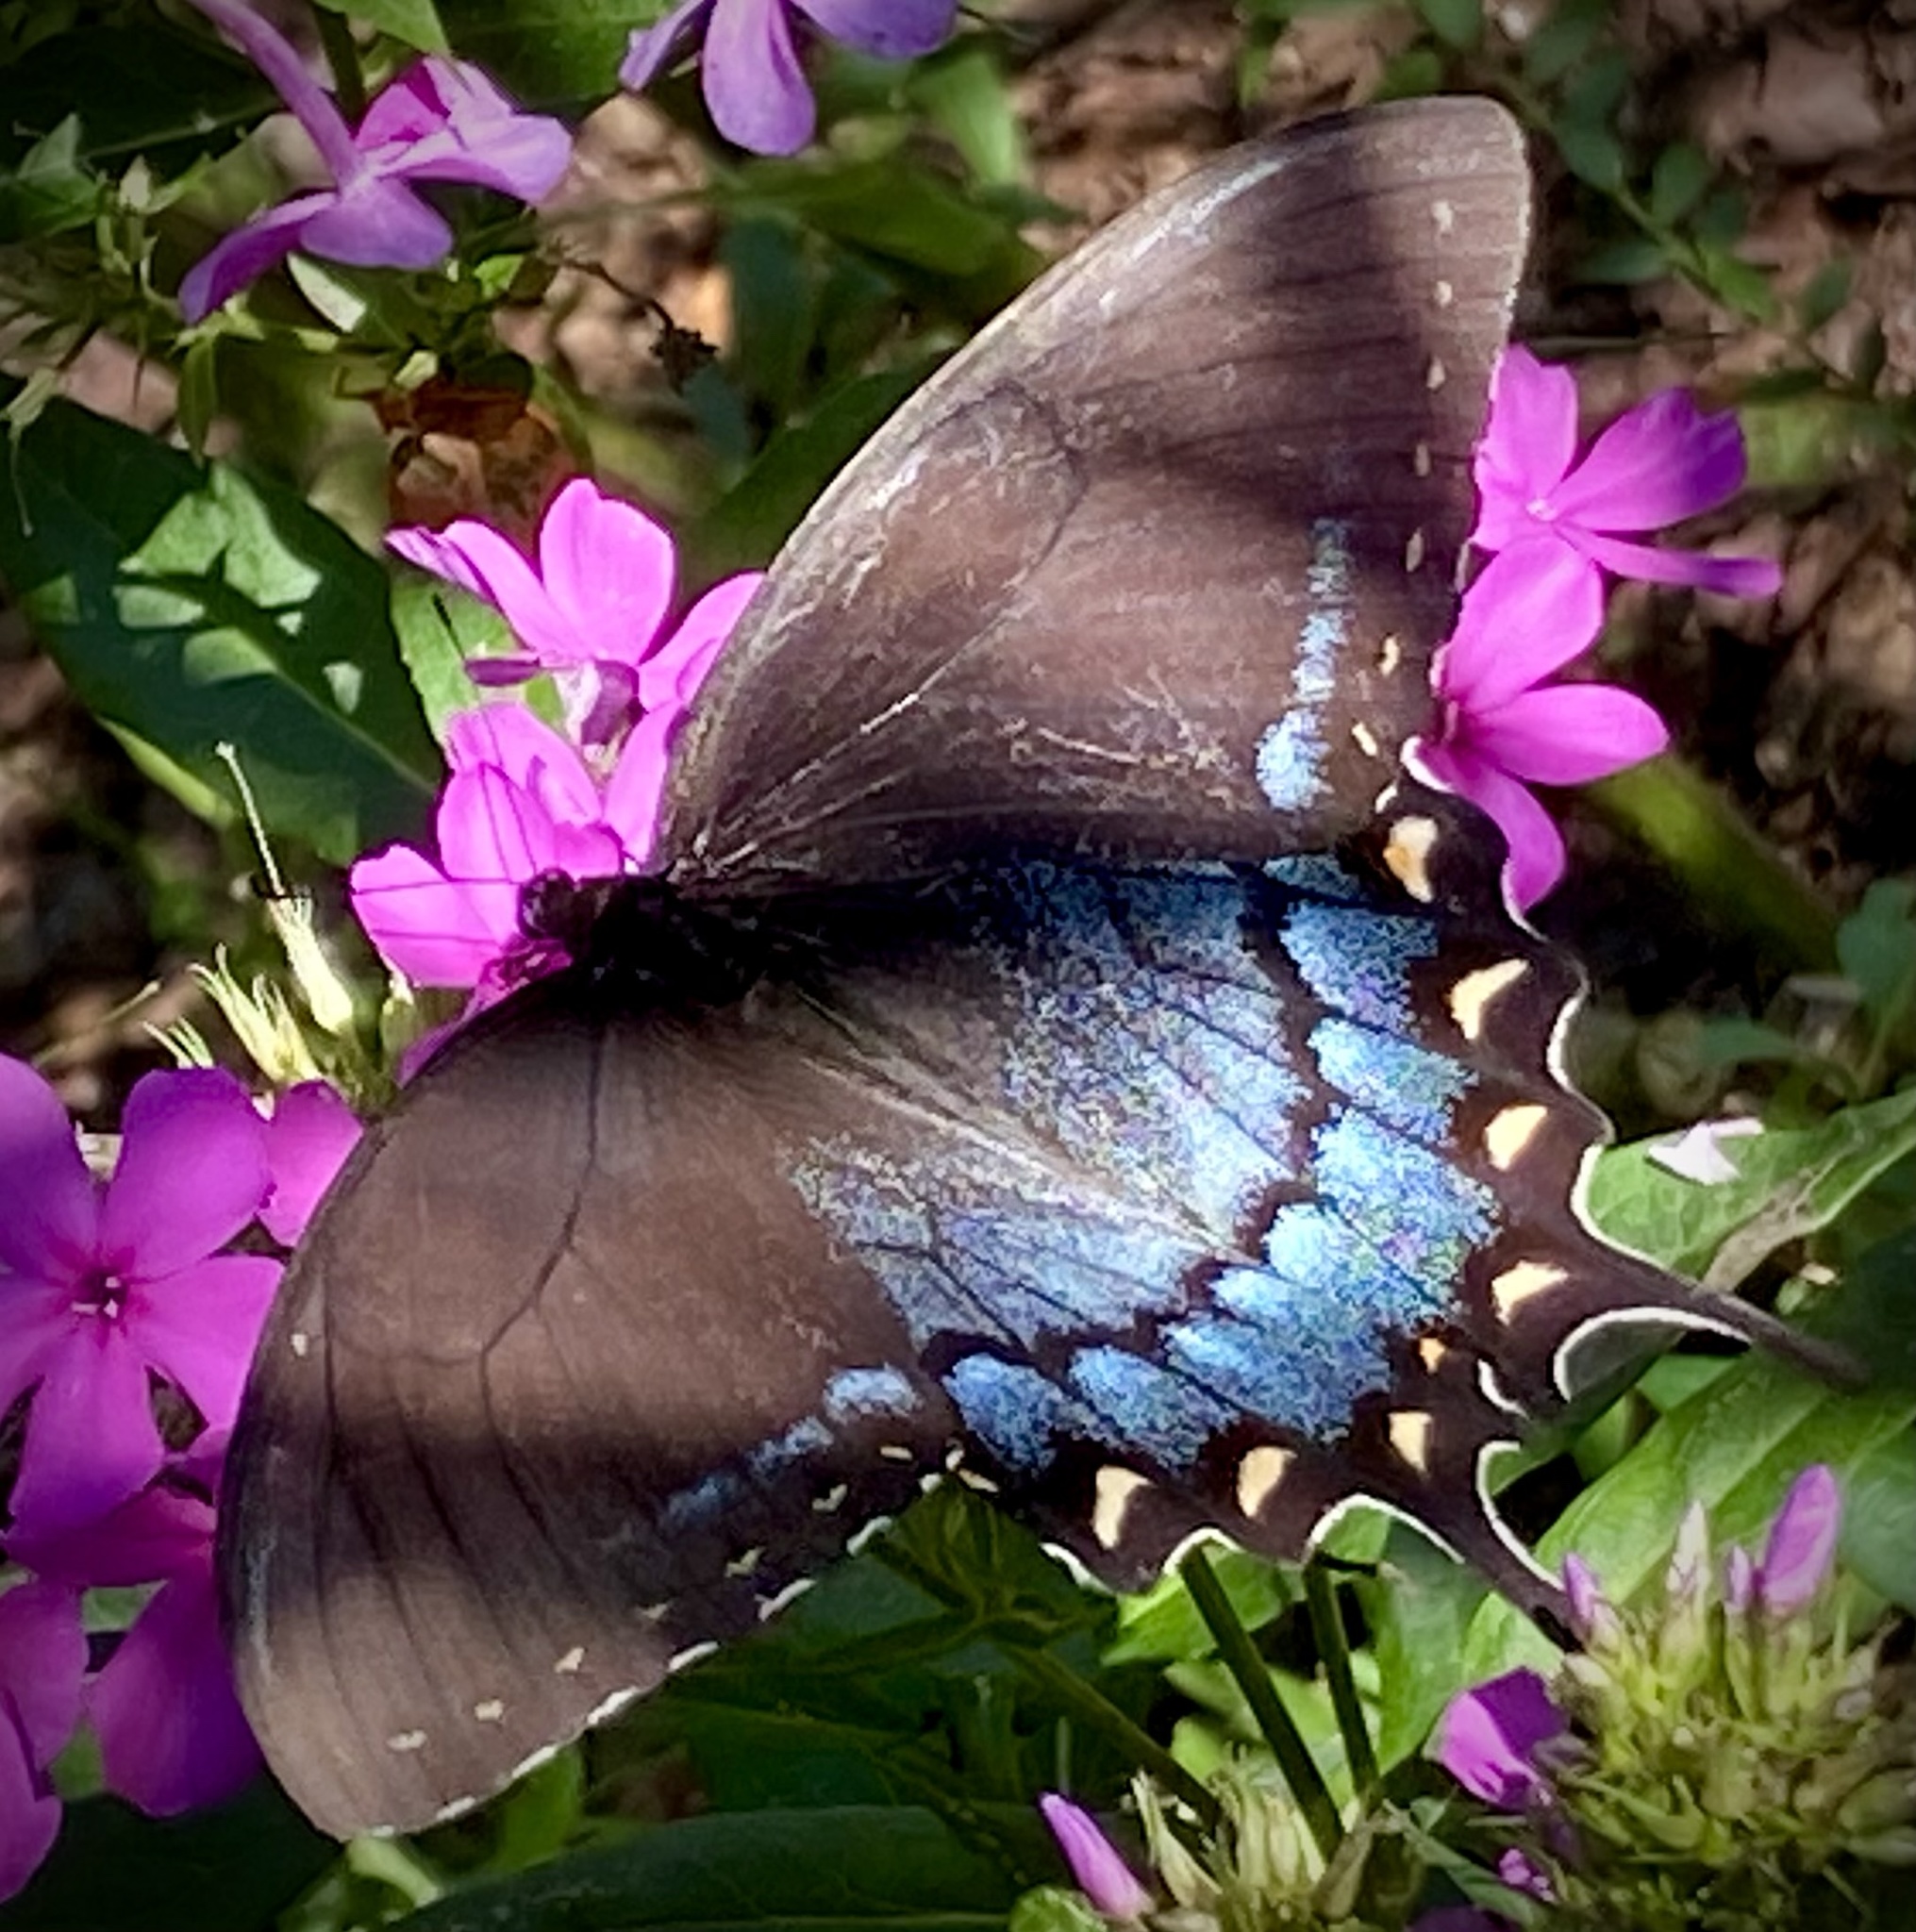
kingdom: Animalia
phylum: Arthropoda
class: Insecta
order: Lepidoptera
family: Papilionidae
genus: Papilio
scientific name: Papilio glaucus
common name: Tiger swallowtail
